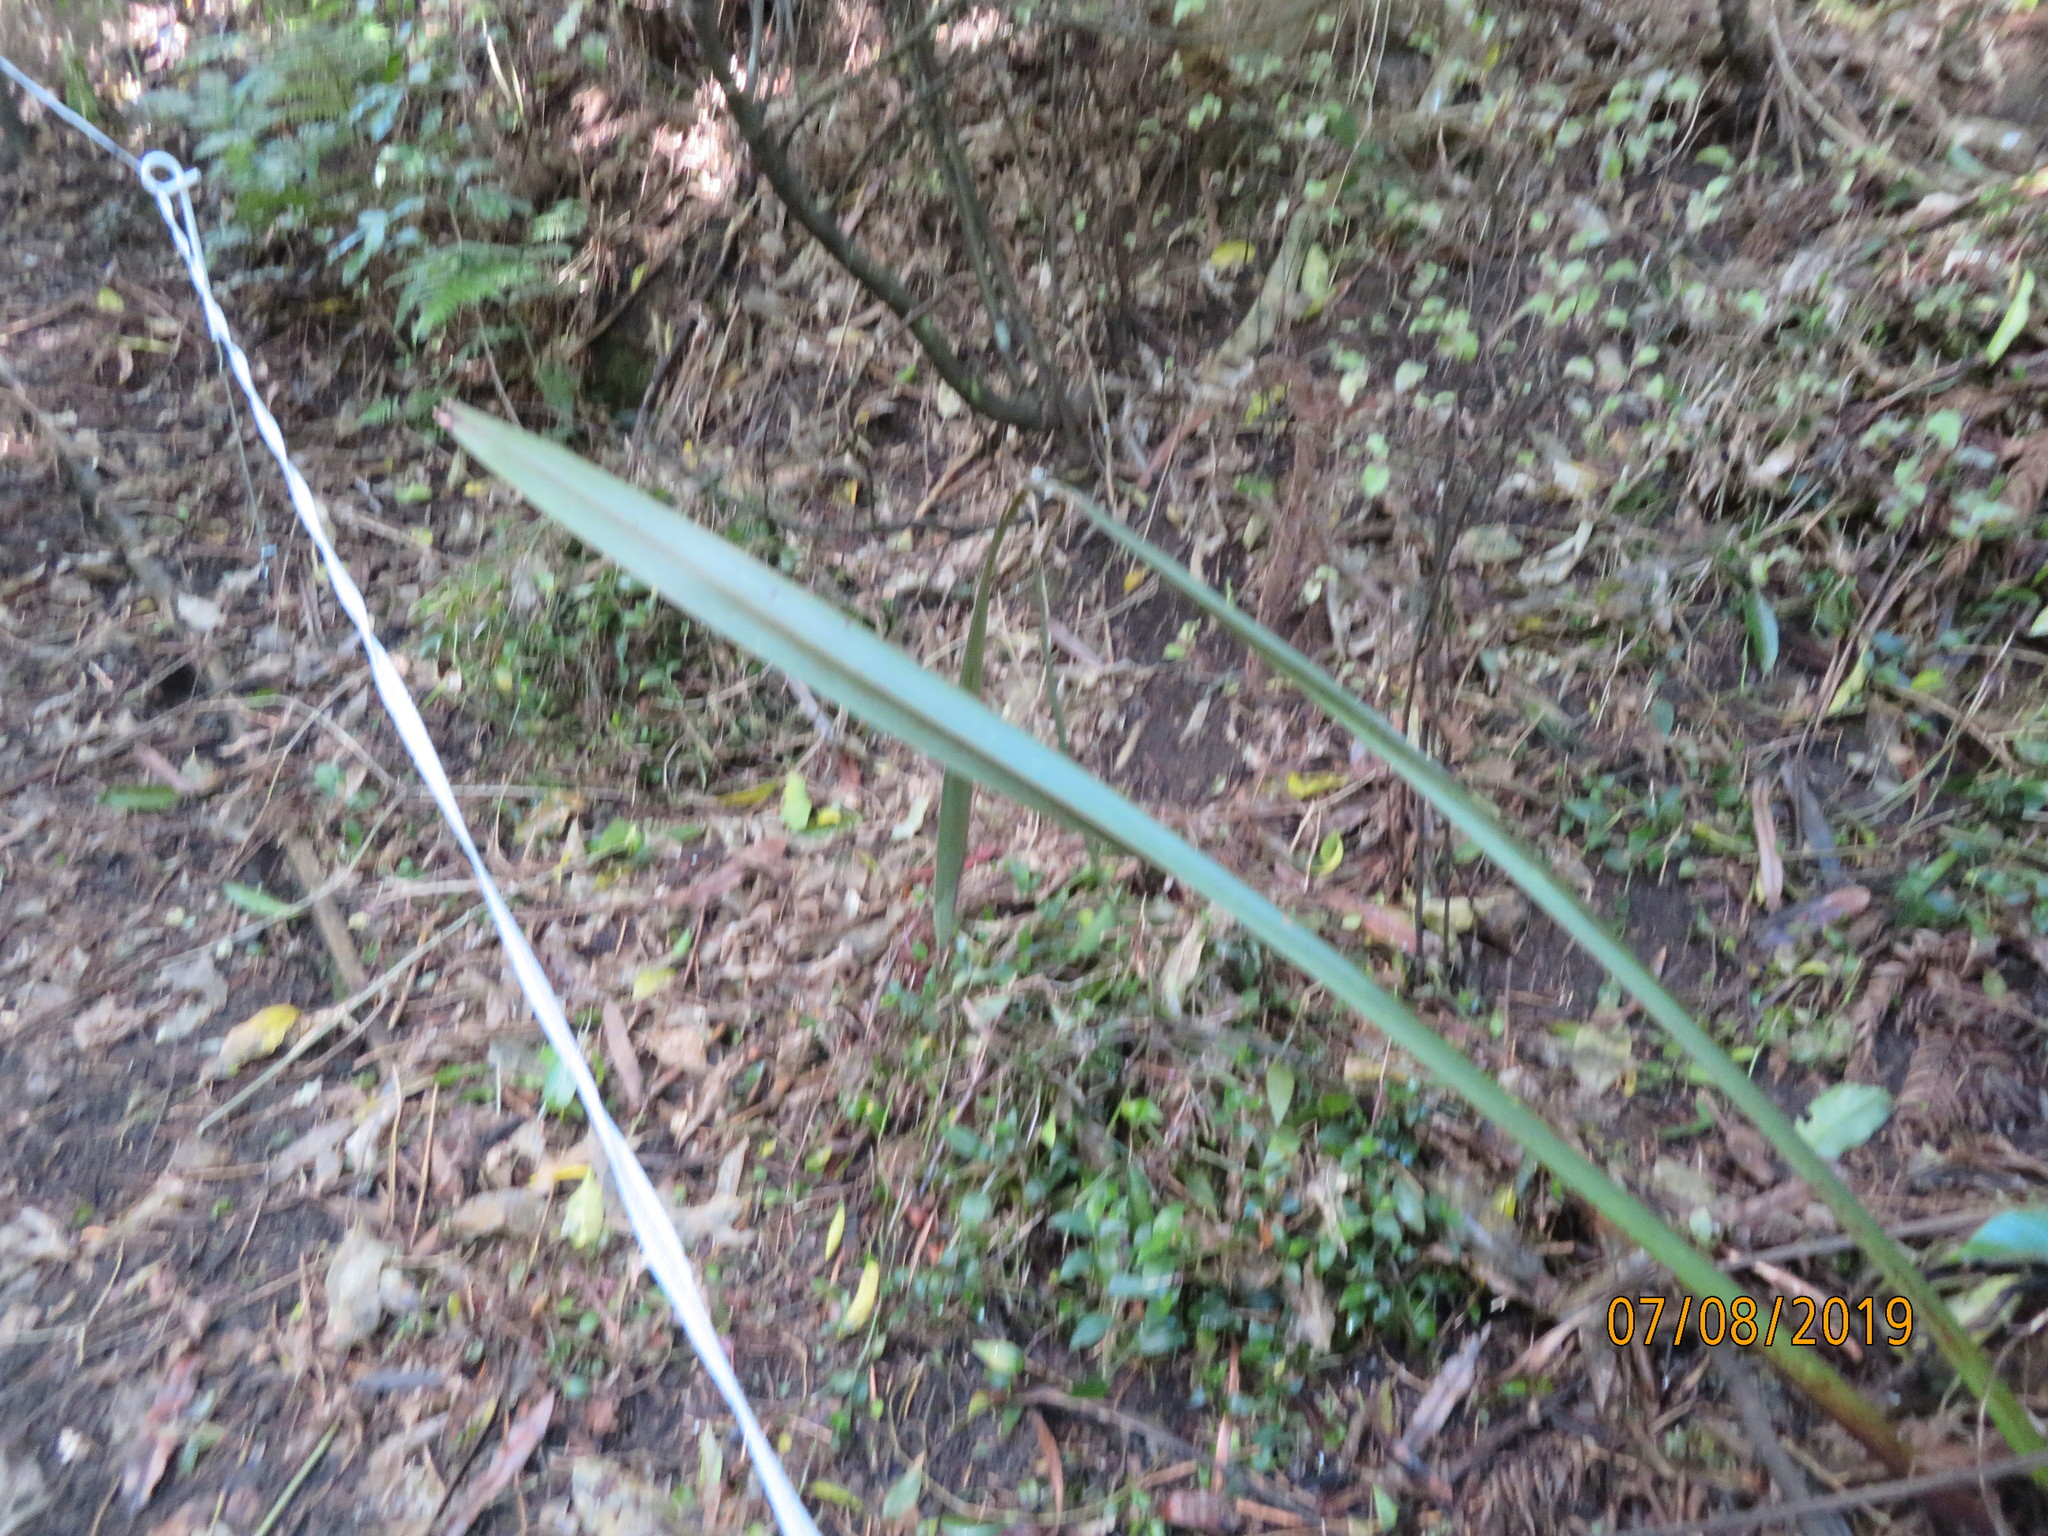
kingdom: Plantae
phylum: Tracheophyta
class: Liliopsida
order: Commelinales
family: Commelinaceae
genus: Tradescantia
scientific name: Tradescantia fluminensis
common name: Wandering-jew
